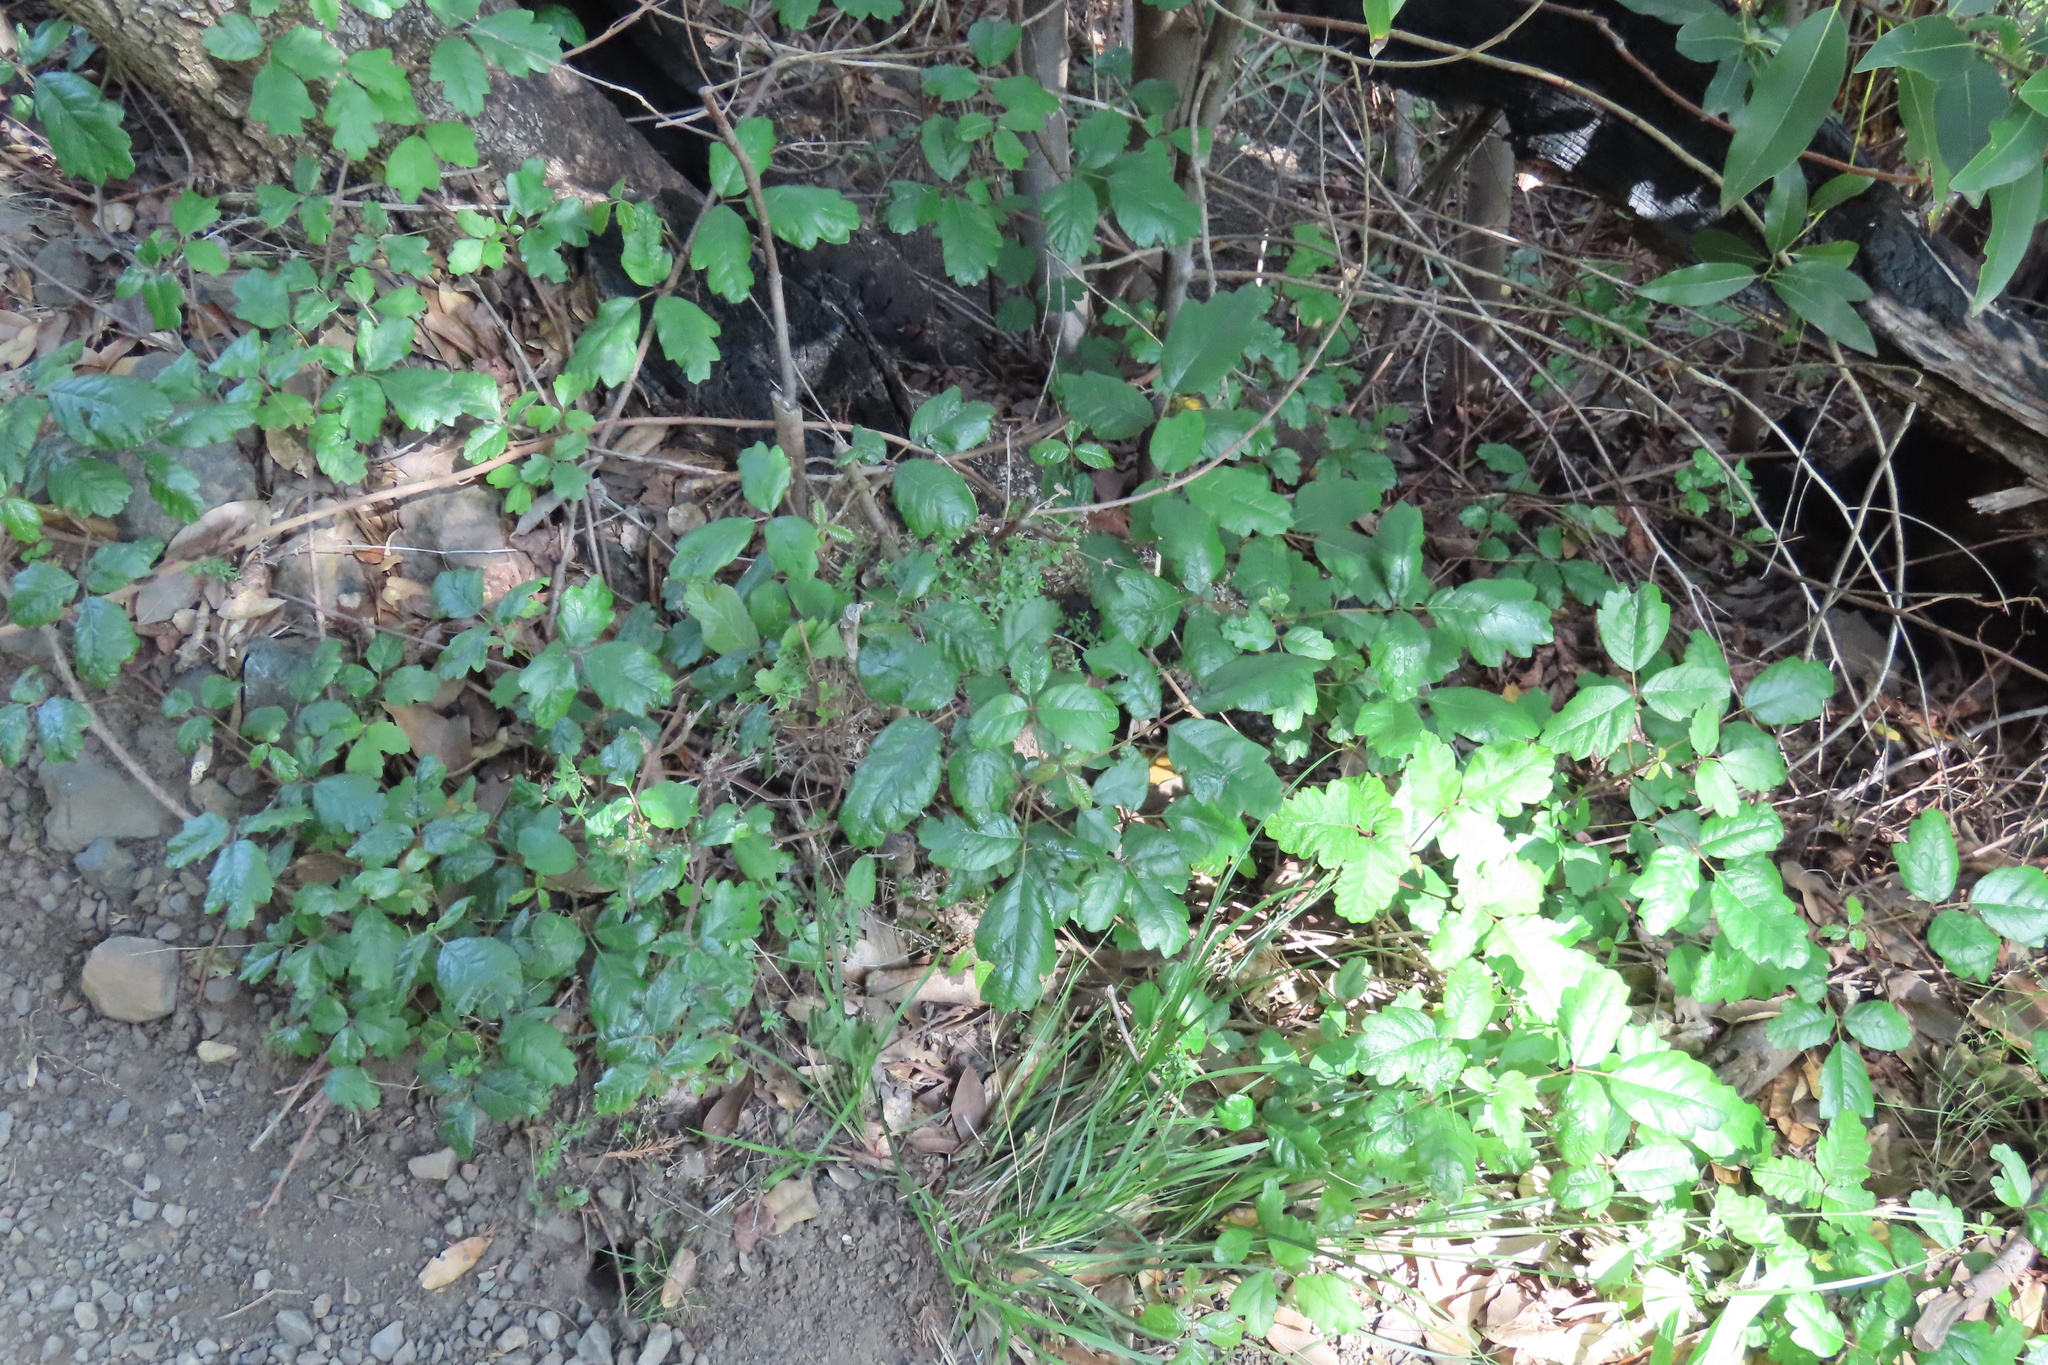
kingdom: Plantae
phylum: Tracheophyta
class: Magnoliopsida
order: Sapindales
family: Anacardiaceae
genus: Toxicodendron
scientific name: Toxicodendron diversilobum
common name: Pacific poison-oak
